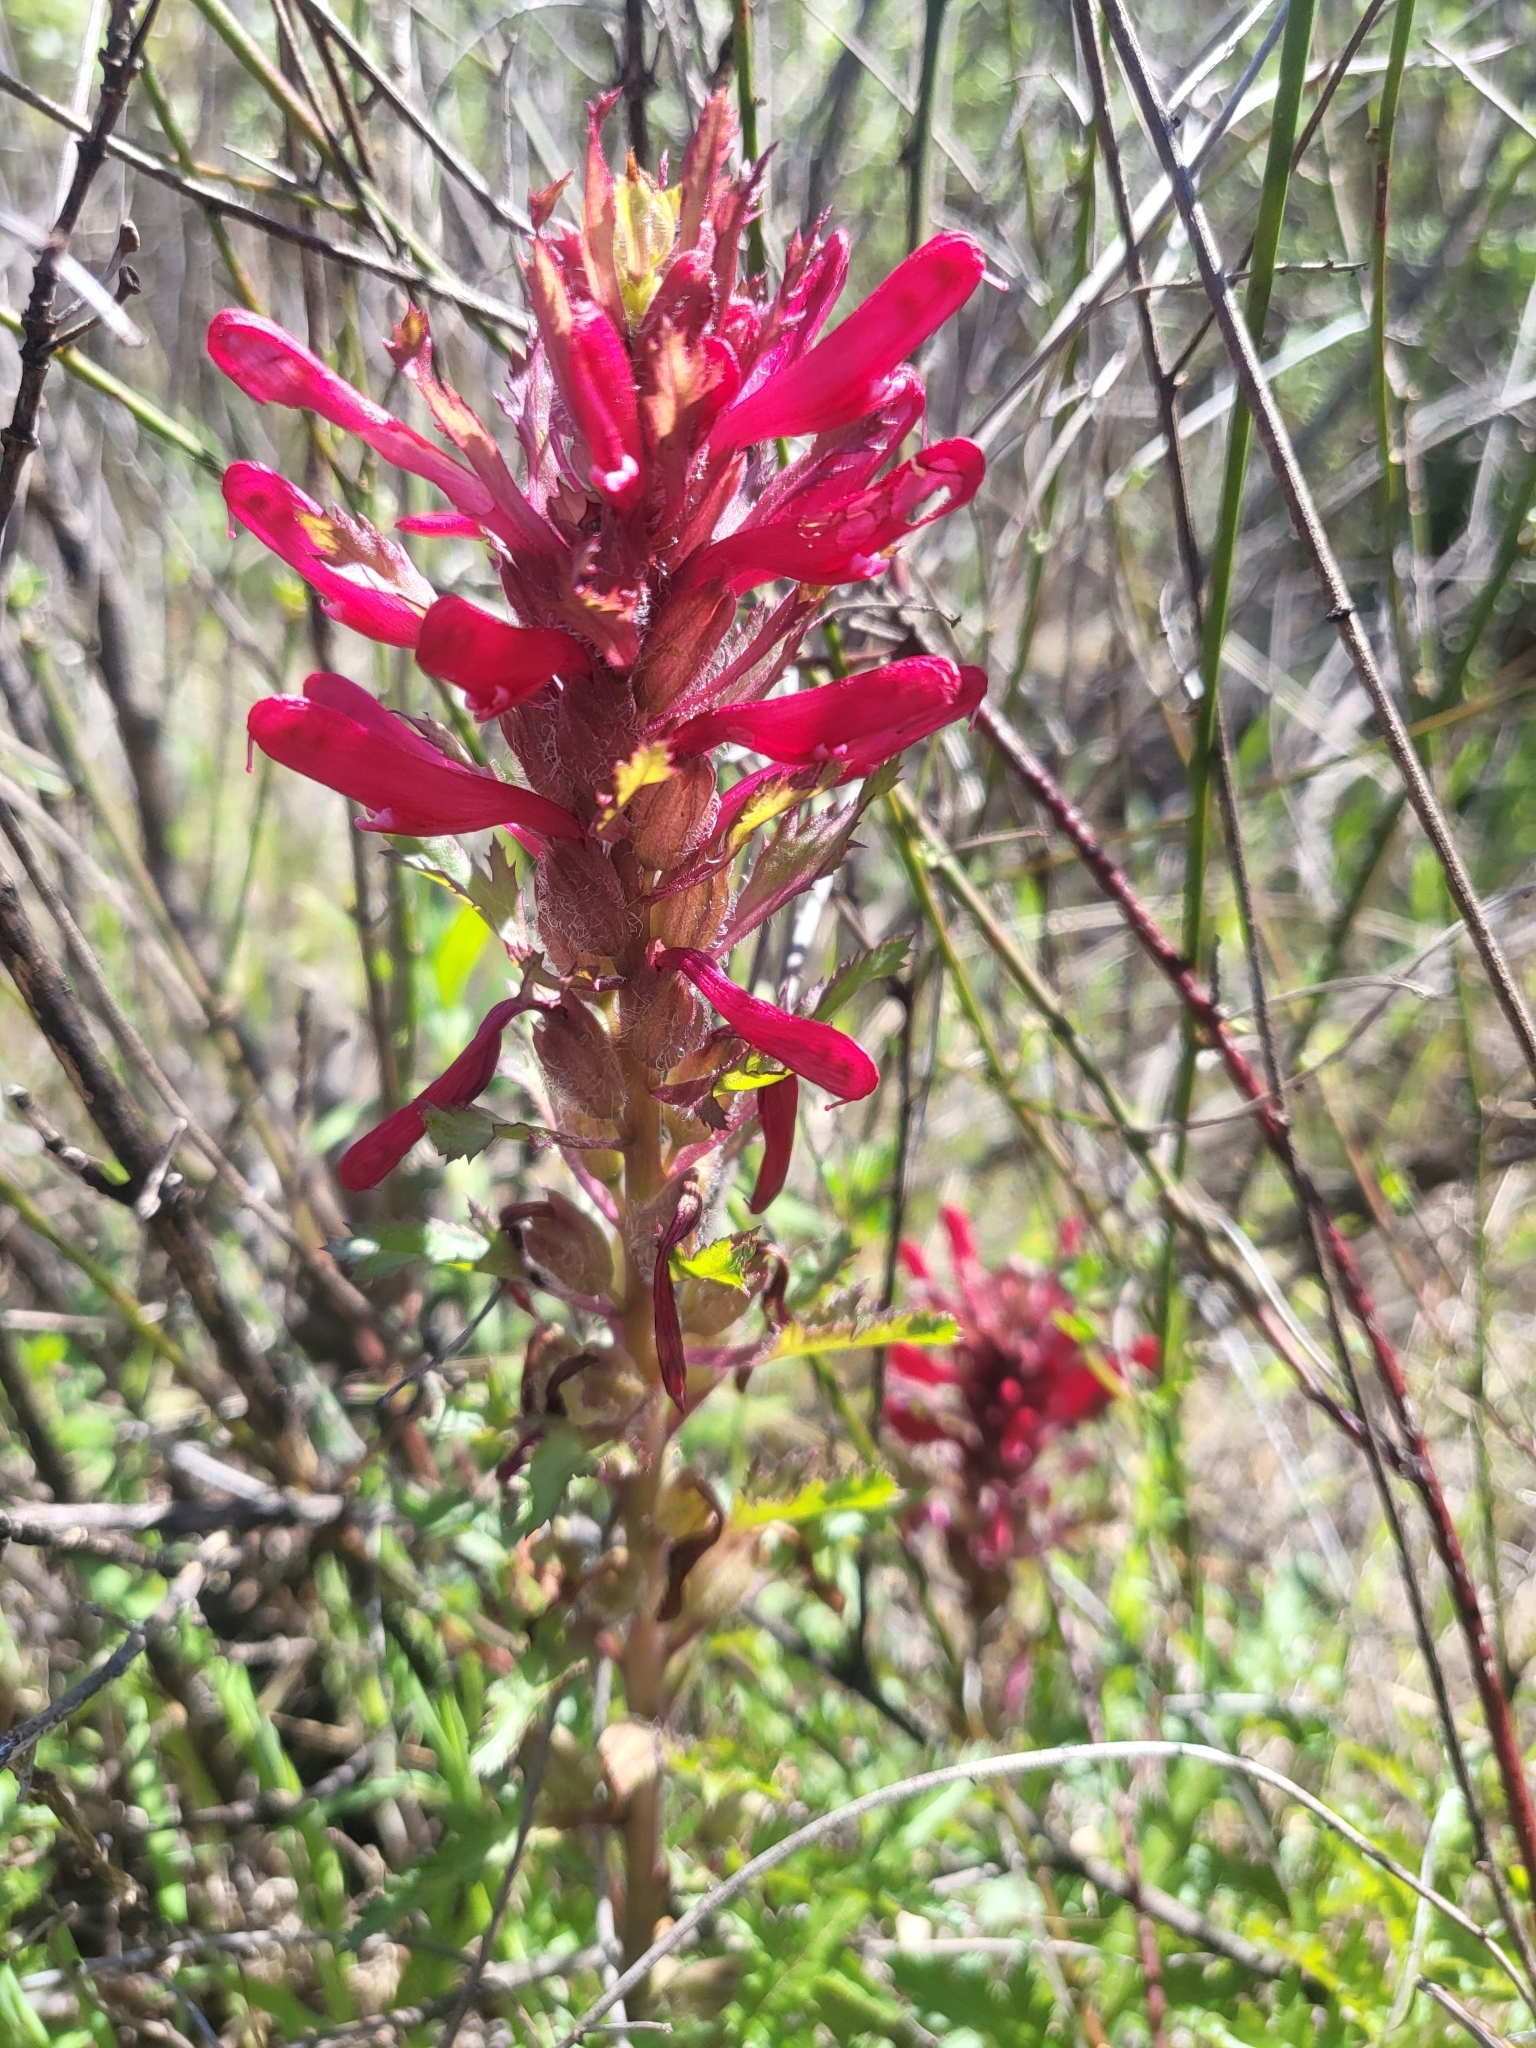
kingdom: Plantae
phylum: Tracheophyta
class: Magnoliopsida
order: Lamiales
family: Orobanchaceae
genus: Pedicularis
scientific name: Pedicularis densiflora
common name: Indian warrior
